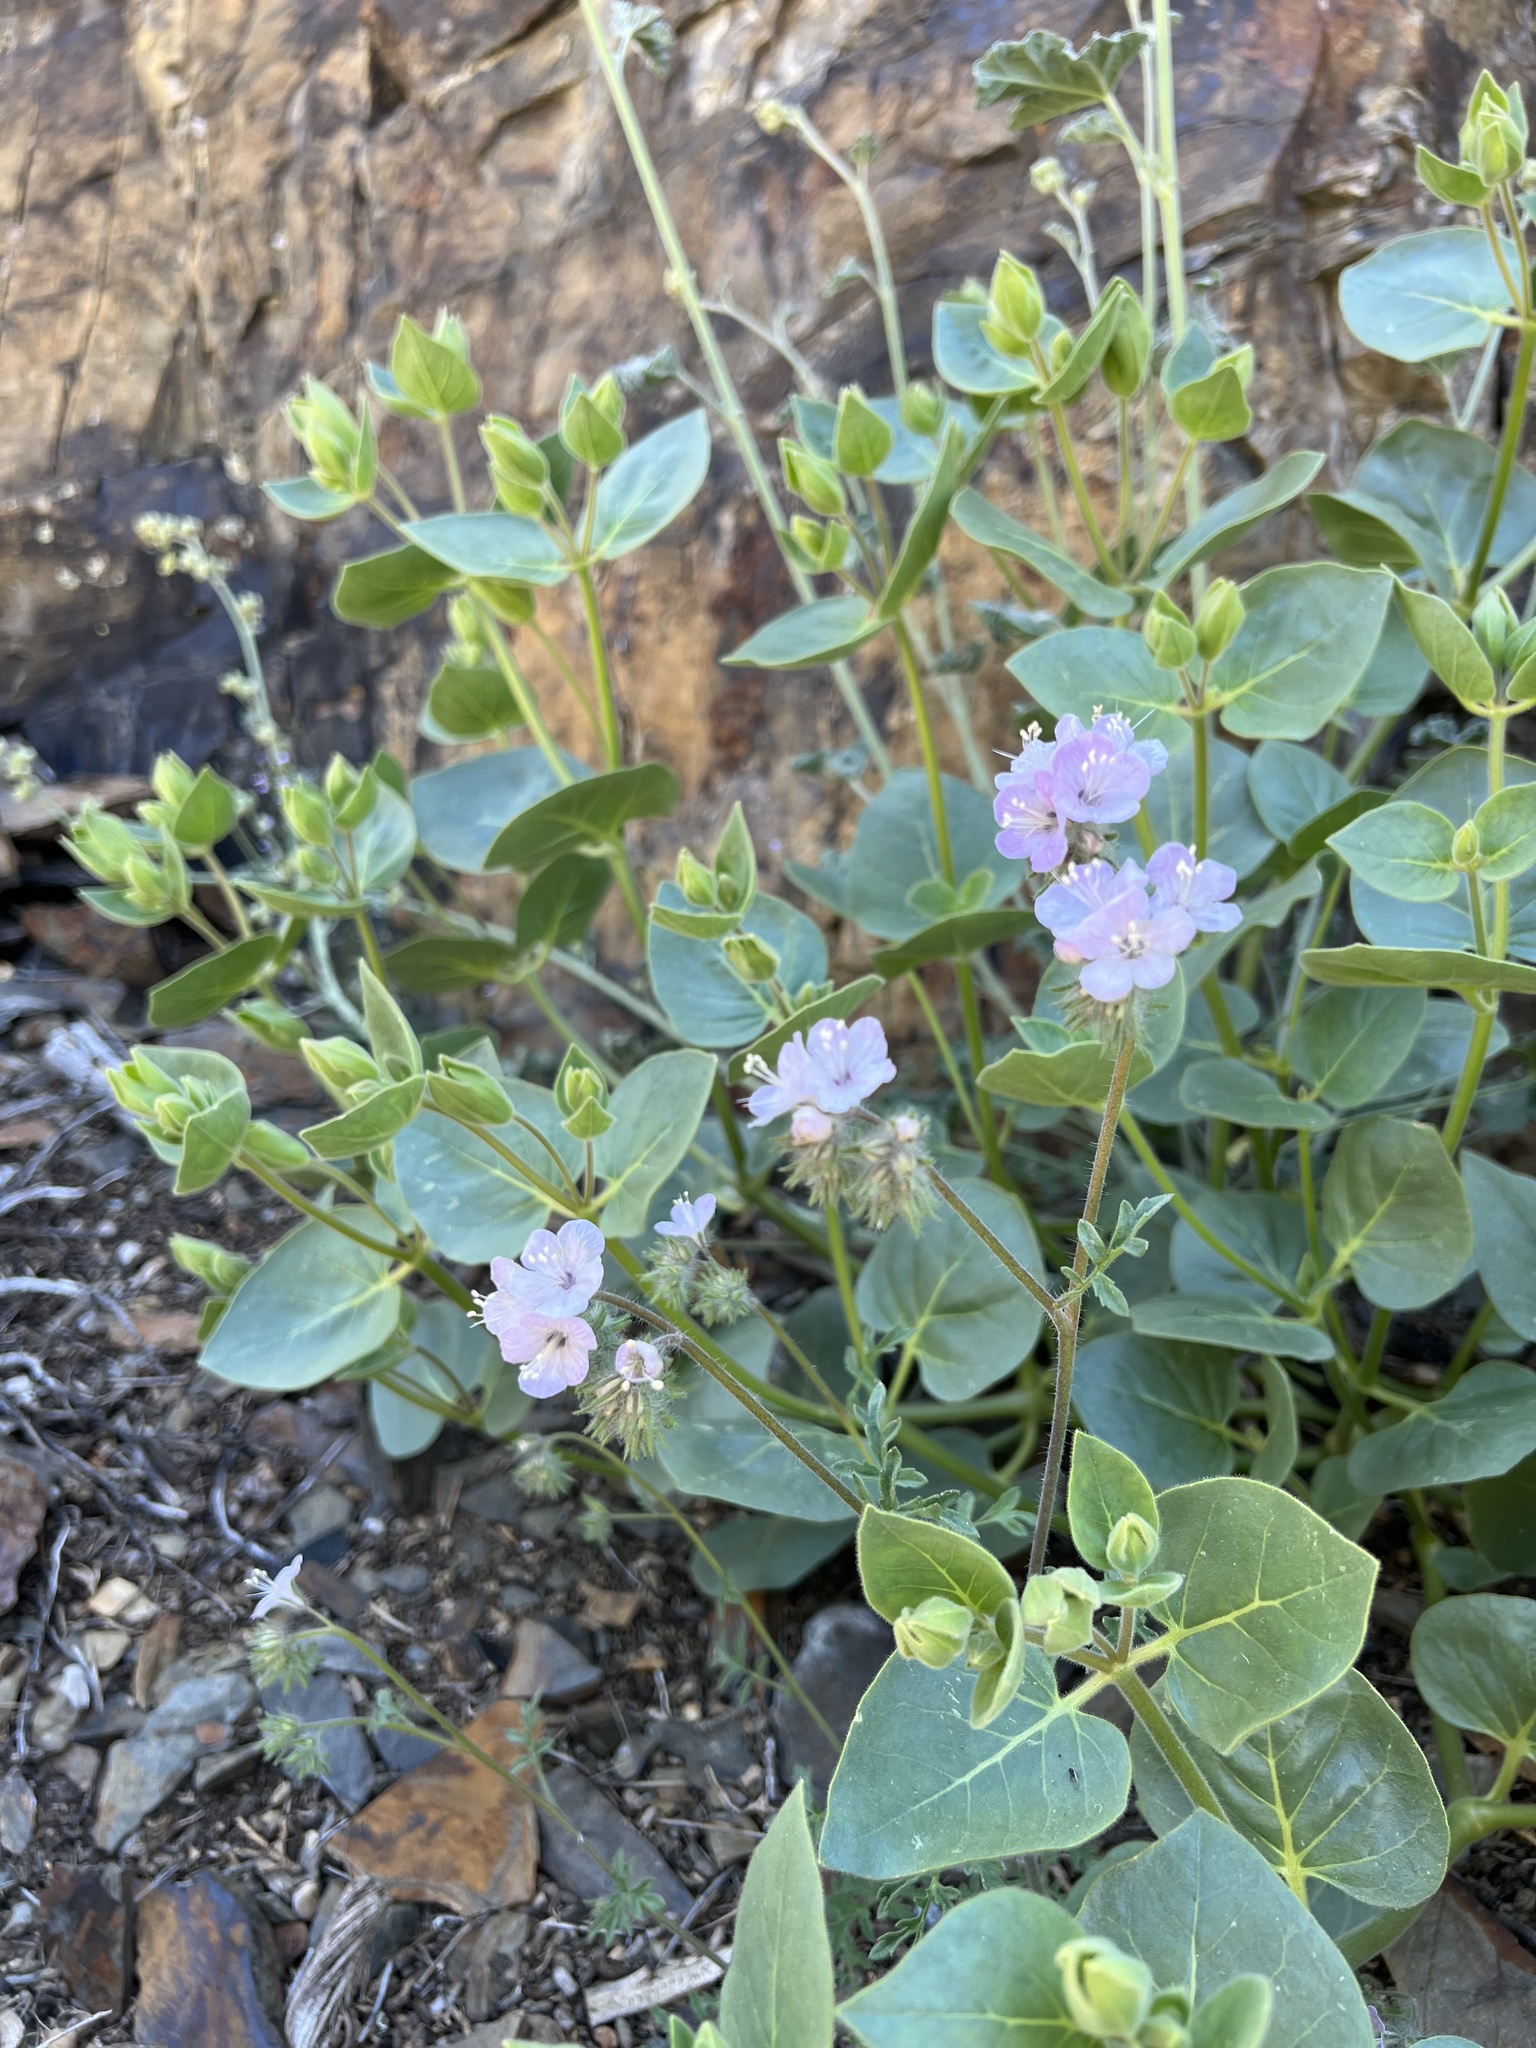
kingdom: Plantae
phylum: Tracheophyta
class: Magnoliopsida
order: Boraginales
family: Hydrophyllaceae
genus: Phacelia
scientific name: Phacelia vallis-mortae
